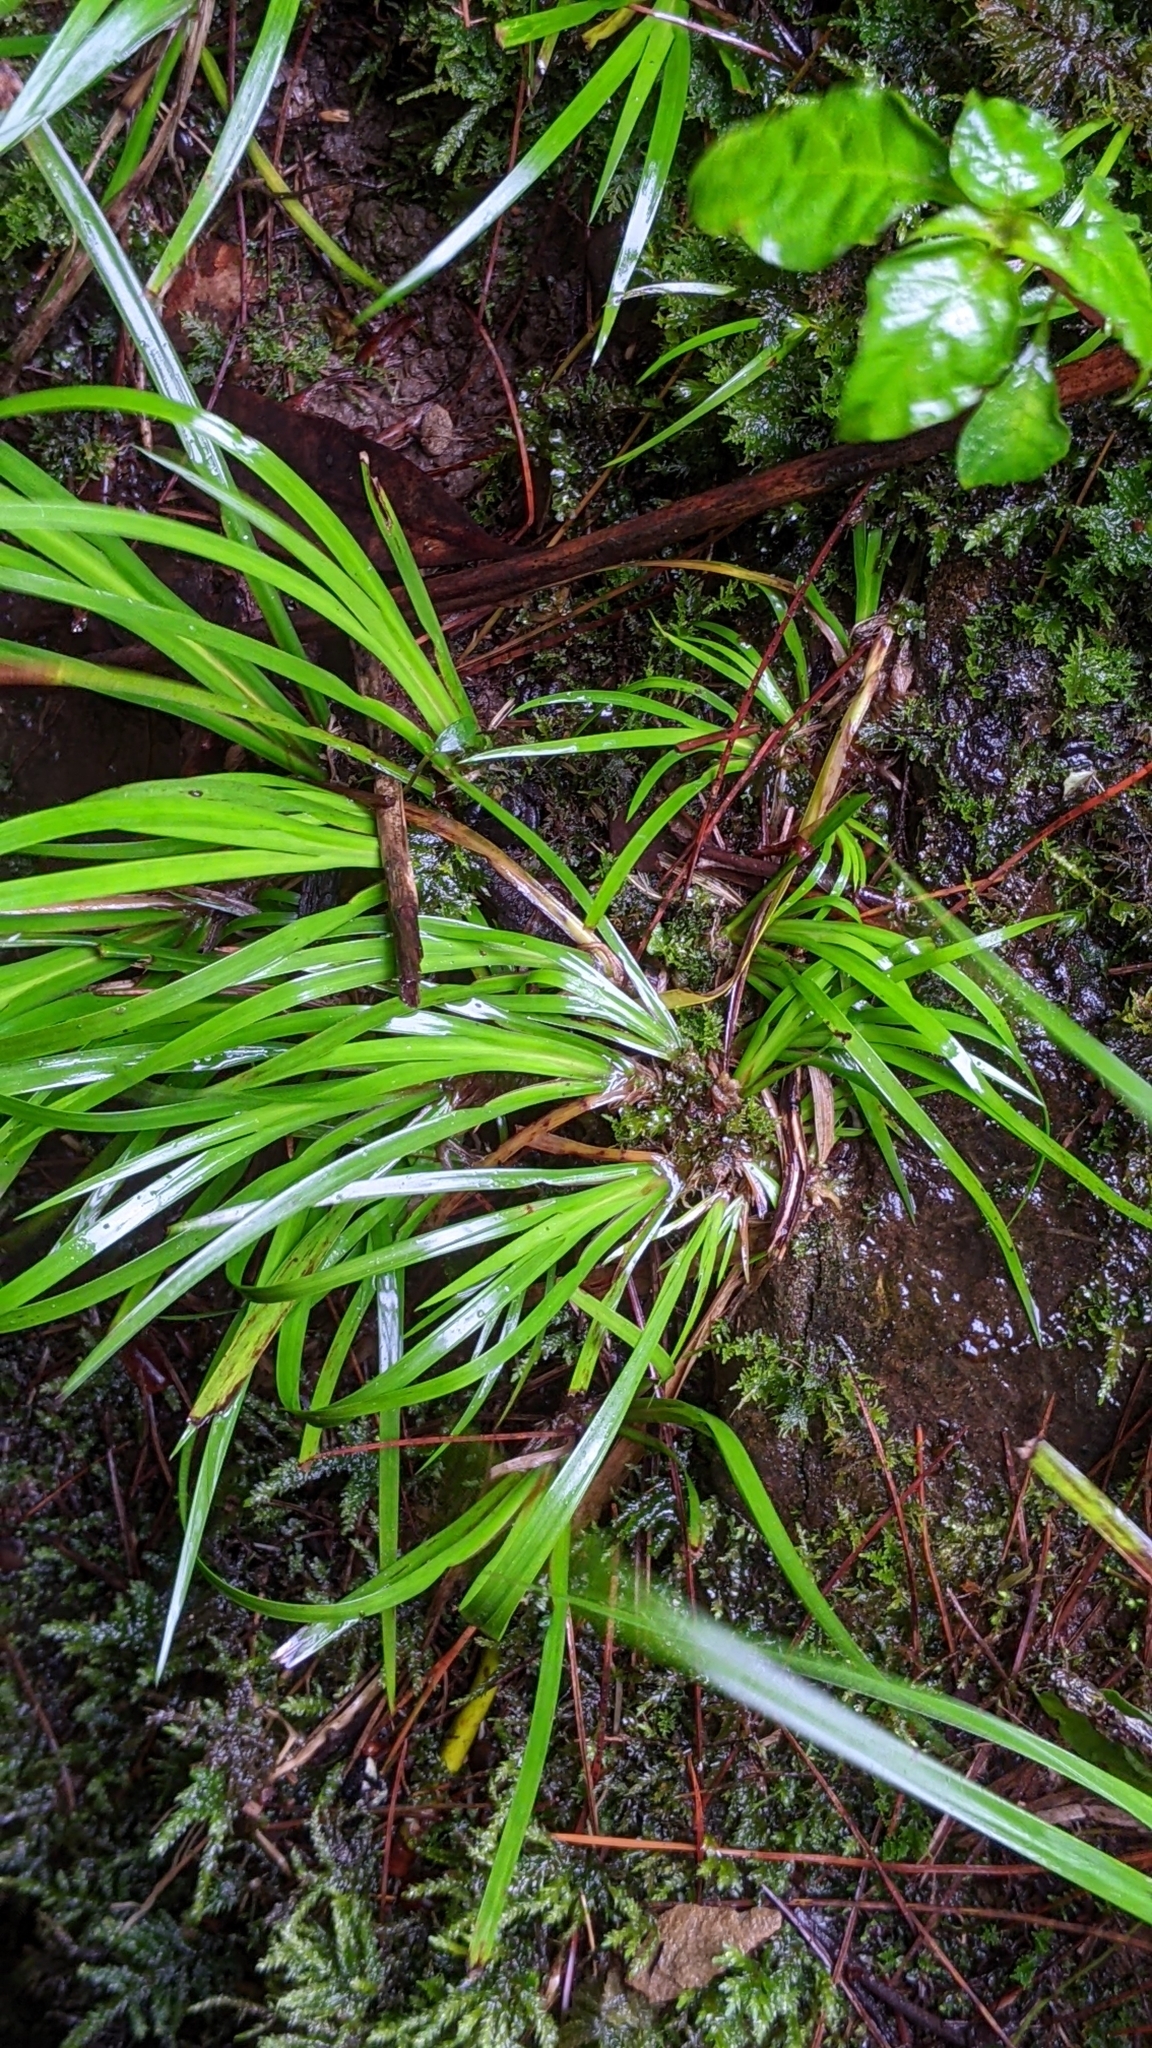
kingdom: Plantae
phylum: Tracheophyta
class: Liliopsida
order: Acorales
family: Acoraceae
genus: Acorus
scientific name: Acorus gramineus
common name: Slender sweet-flag
